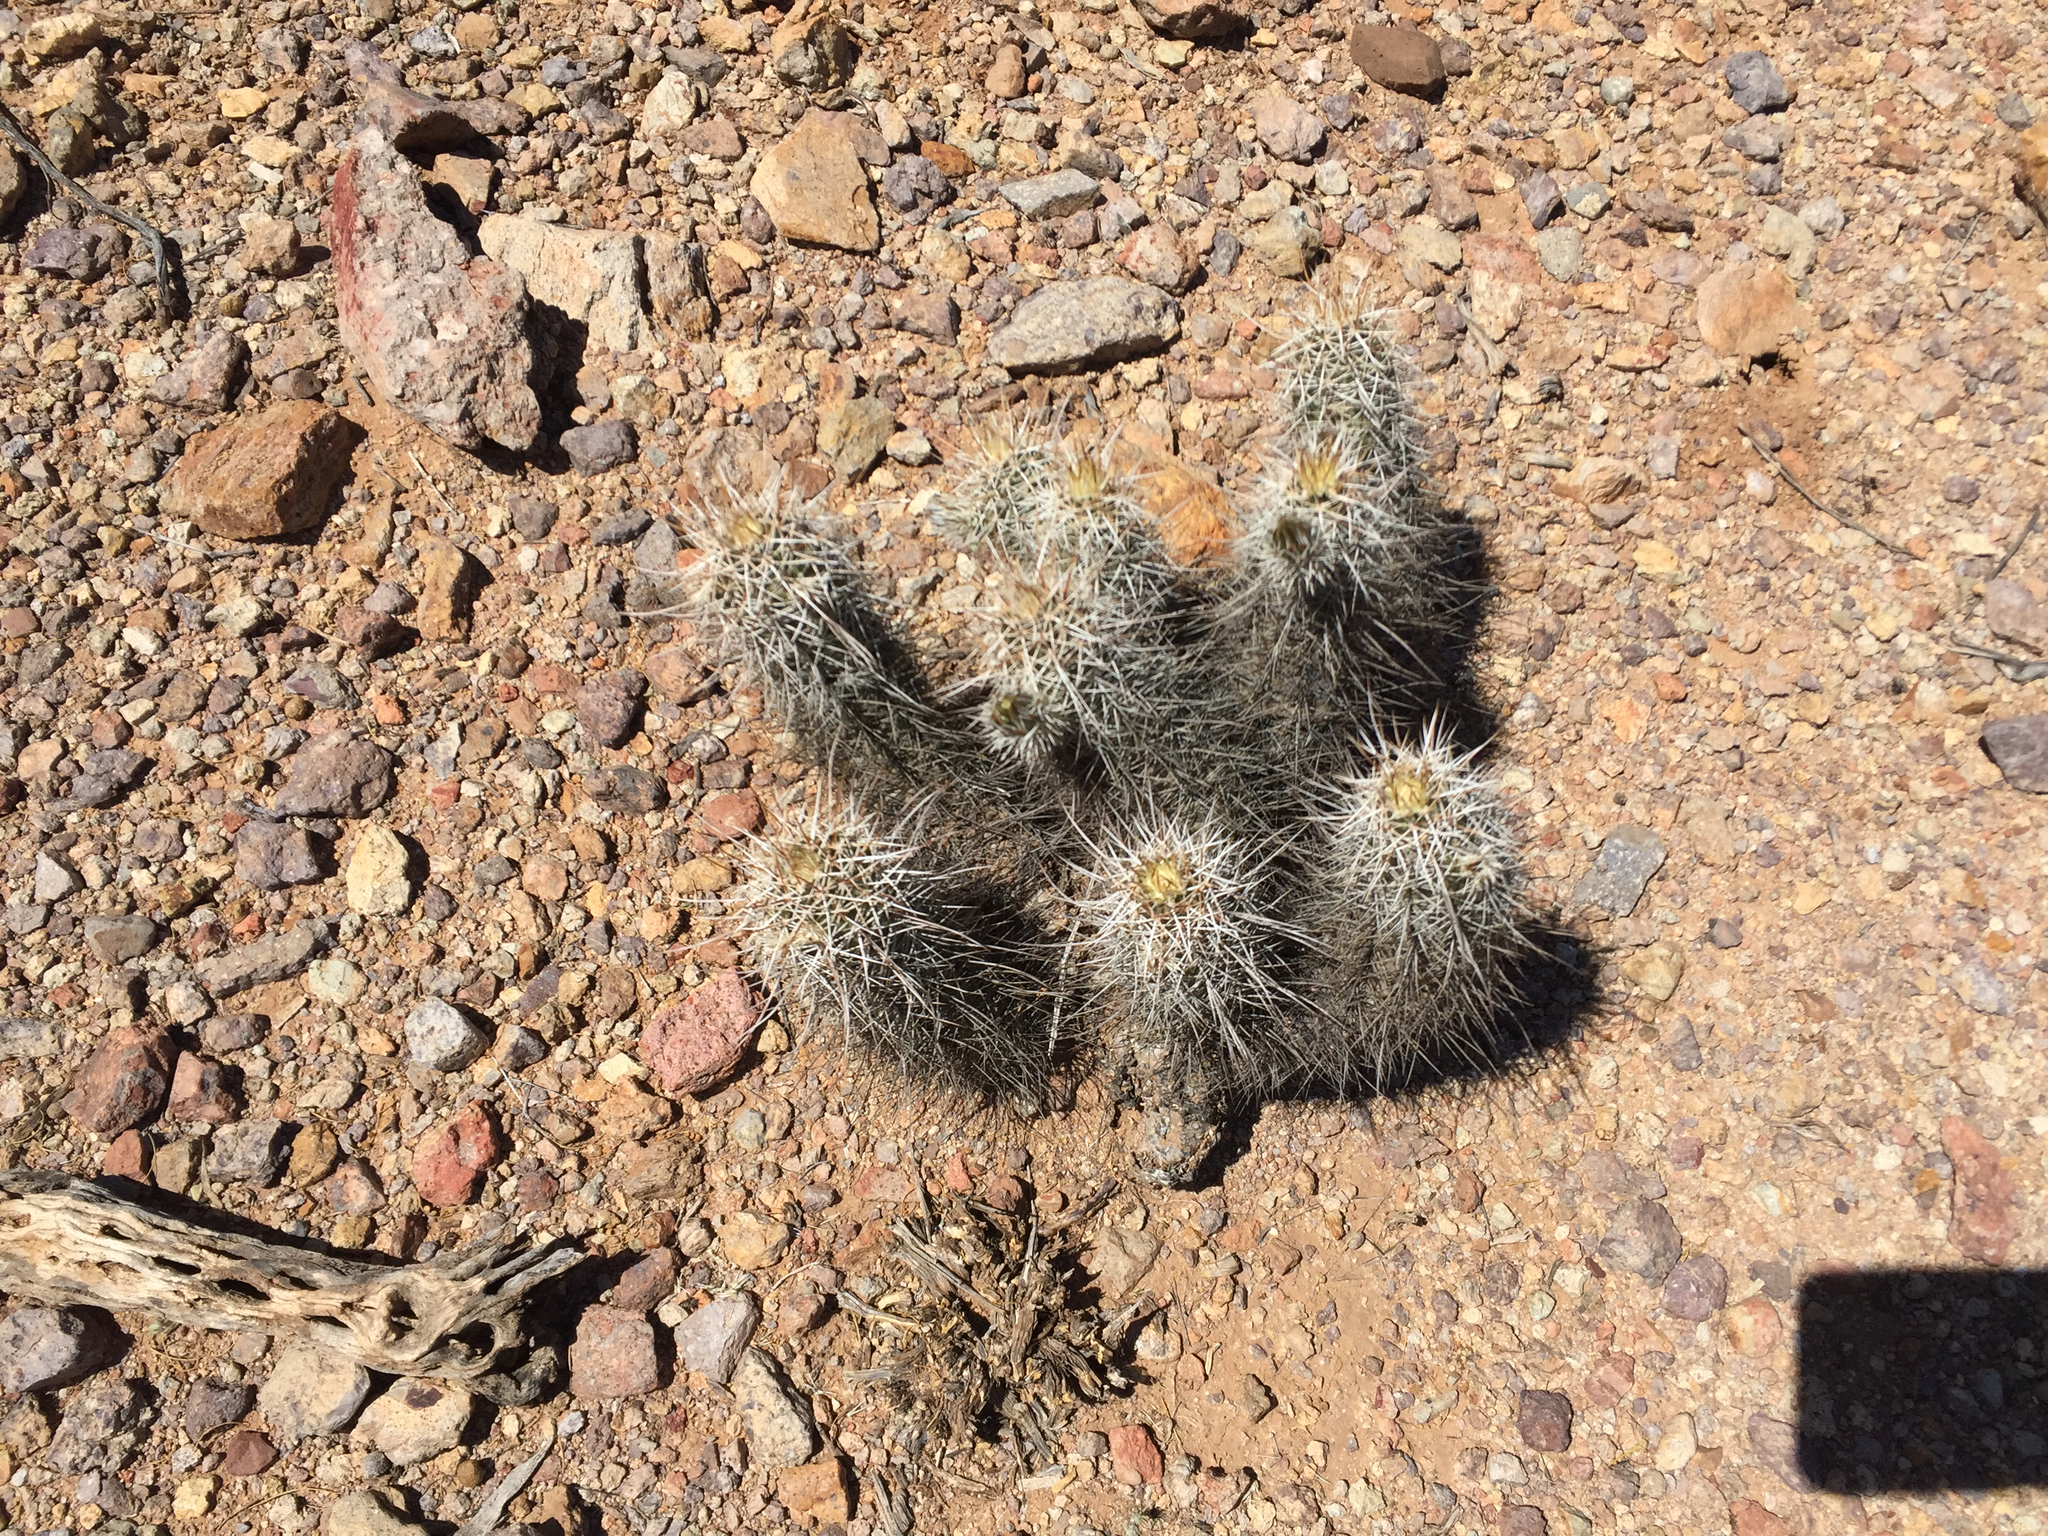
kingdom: Plantae
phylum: Tracheophyta
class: Magnoliopsida
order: Caryophyllales
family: Cactaceae
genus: Echinocereus
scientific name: Echinocereus fasciculatus
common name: Bundle hedgehog
